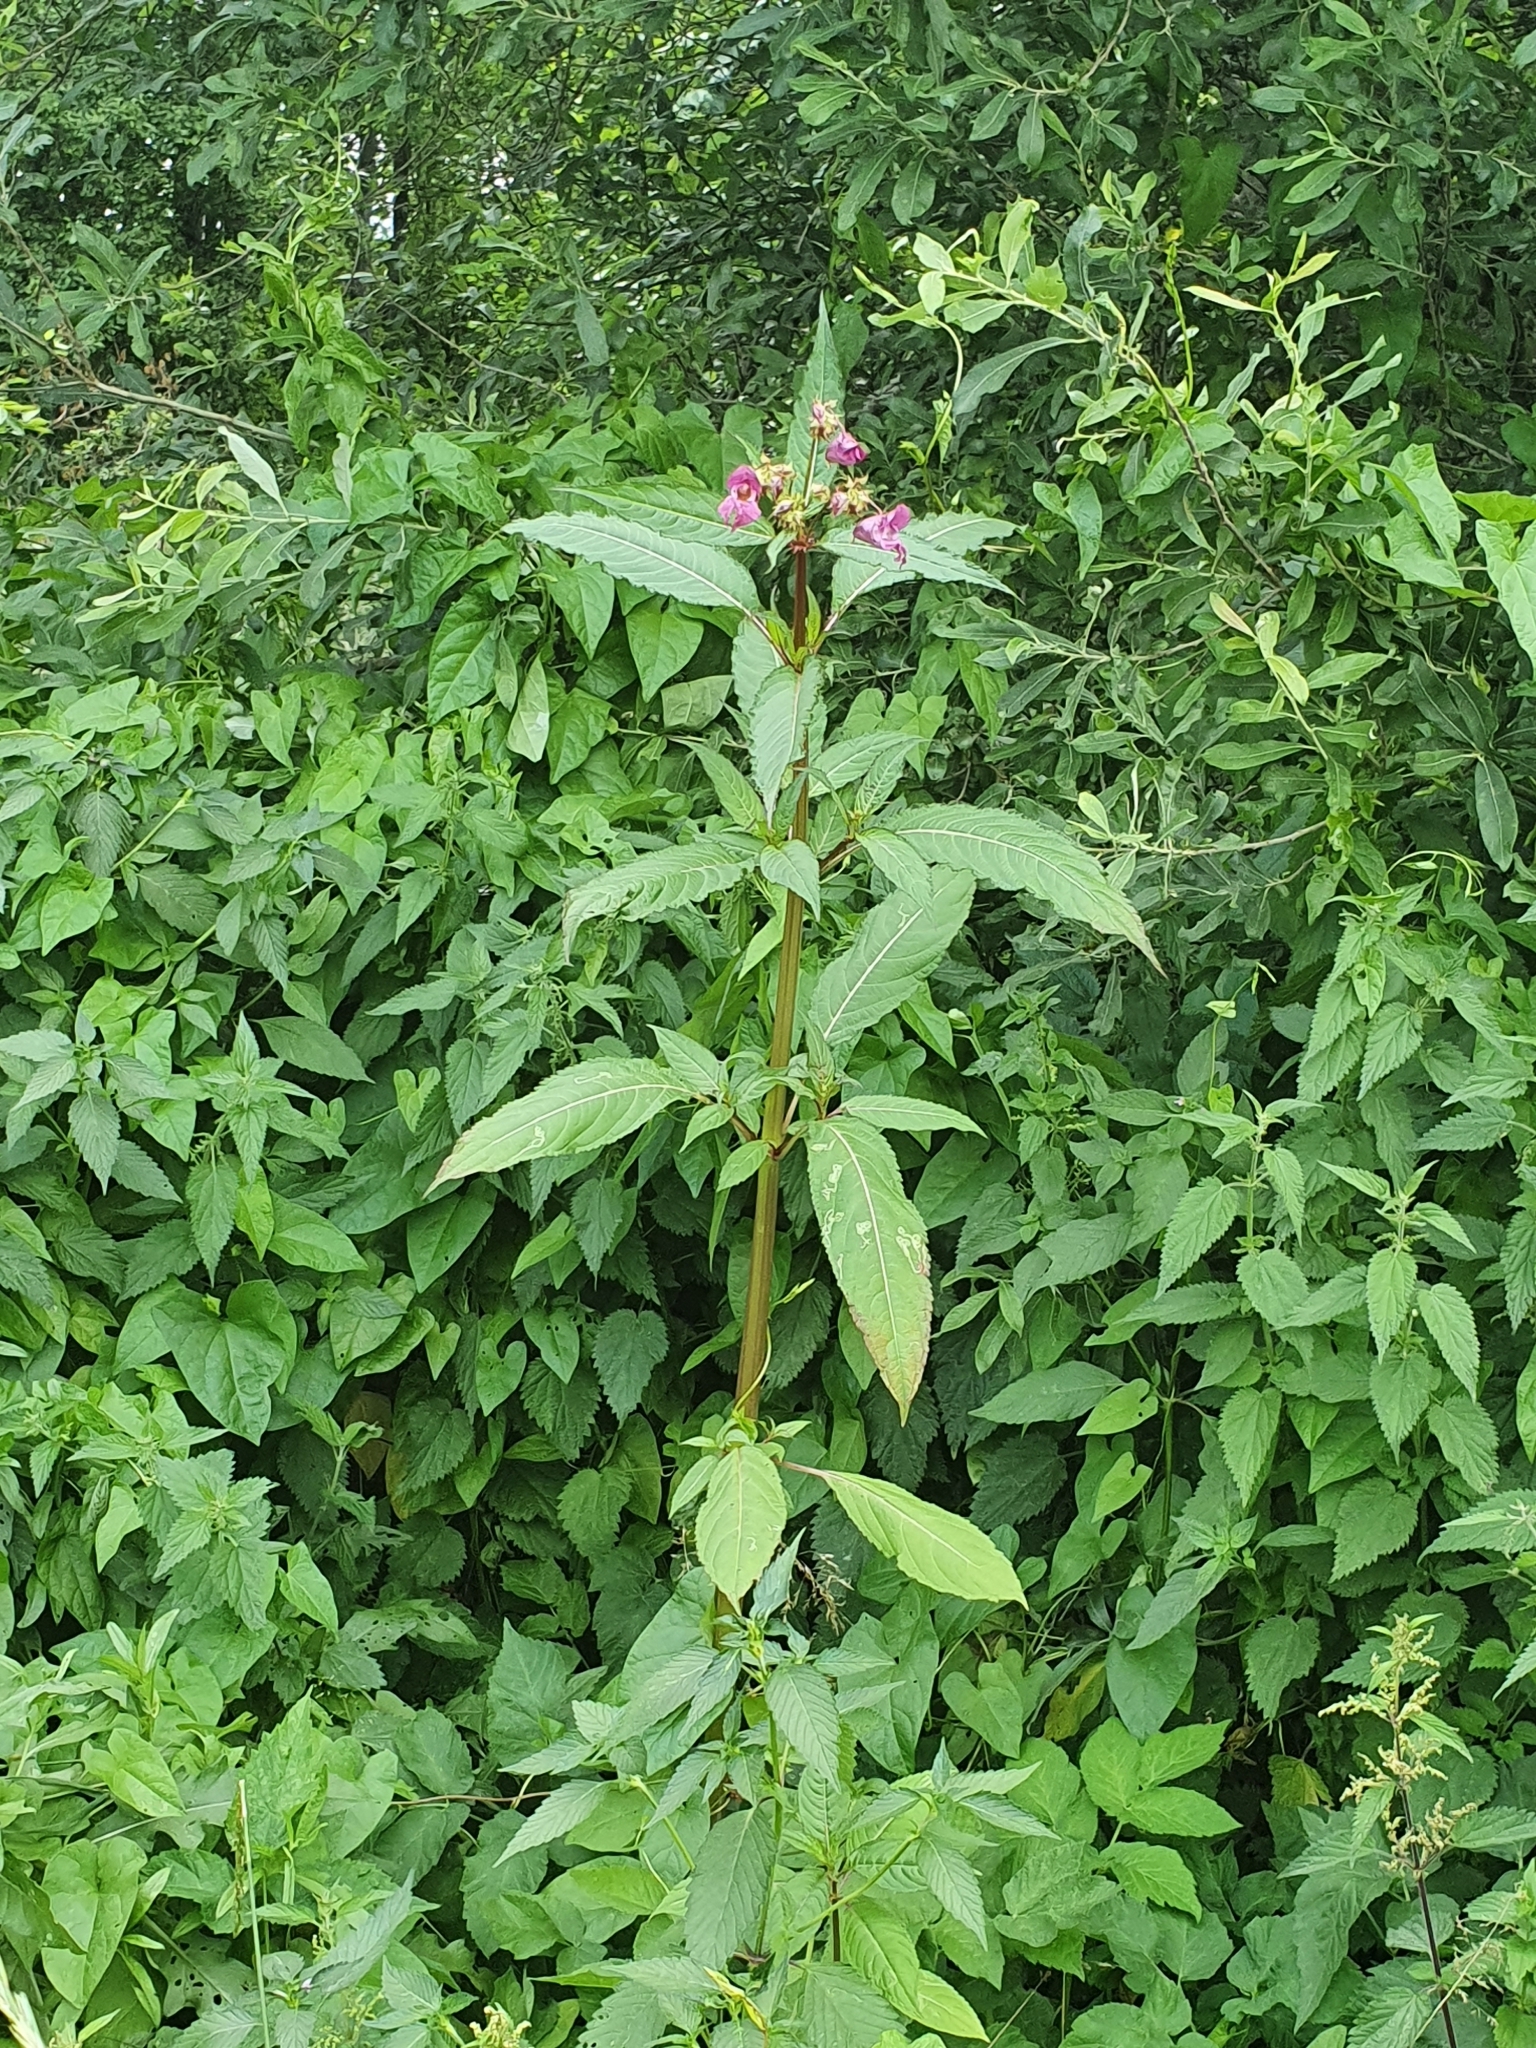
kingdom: Plantae
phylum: Tracheophyta
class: Magnoliopsida
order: Ericales
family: Balsaminaceae
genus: Impatiens
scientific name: Impatiens glandulifera
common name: Himalayan balsam
